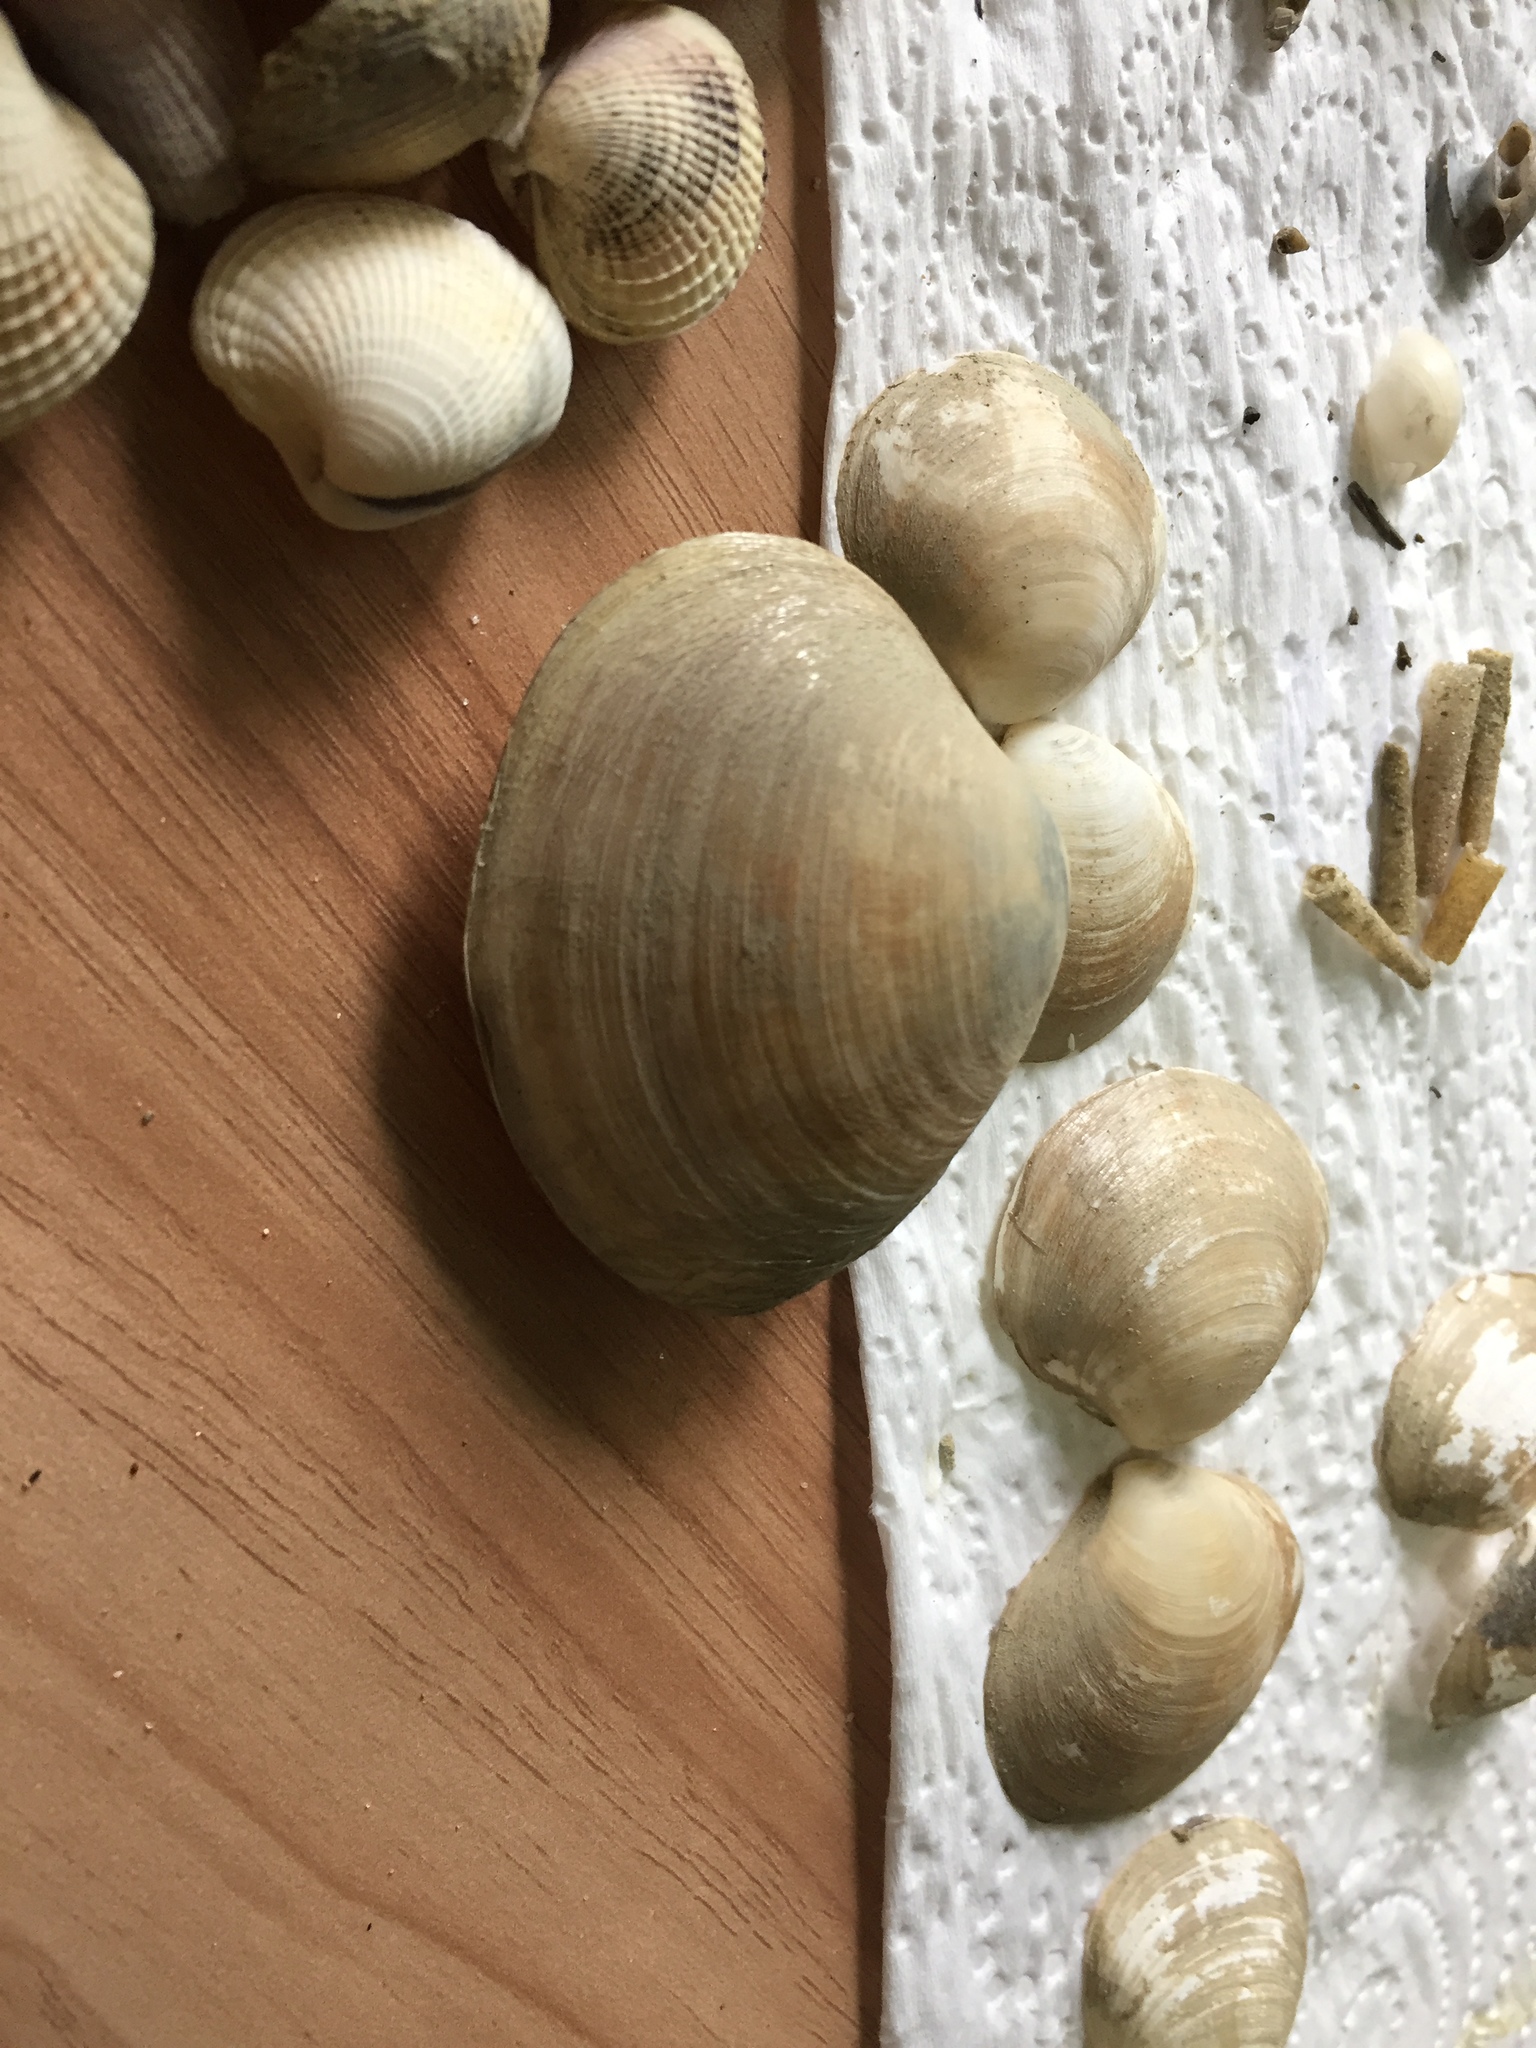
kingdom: Animalia
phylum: Mollusca
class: Bivalvia
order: Venerida
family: Mactridae
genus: Cyclomactra
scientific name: Cyclomactra ovata
